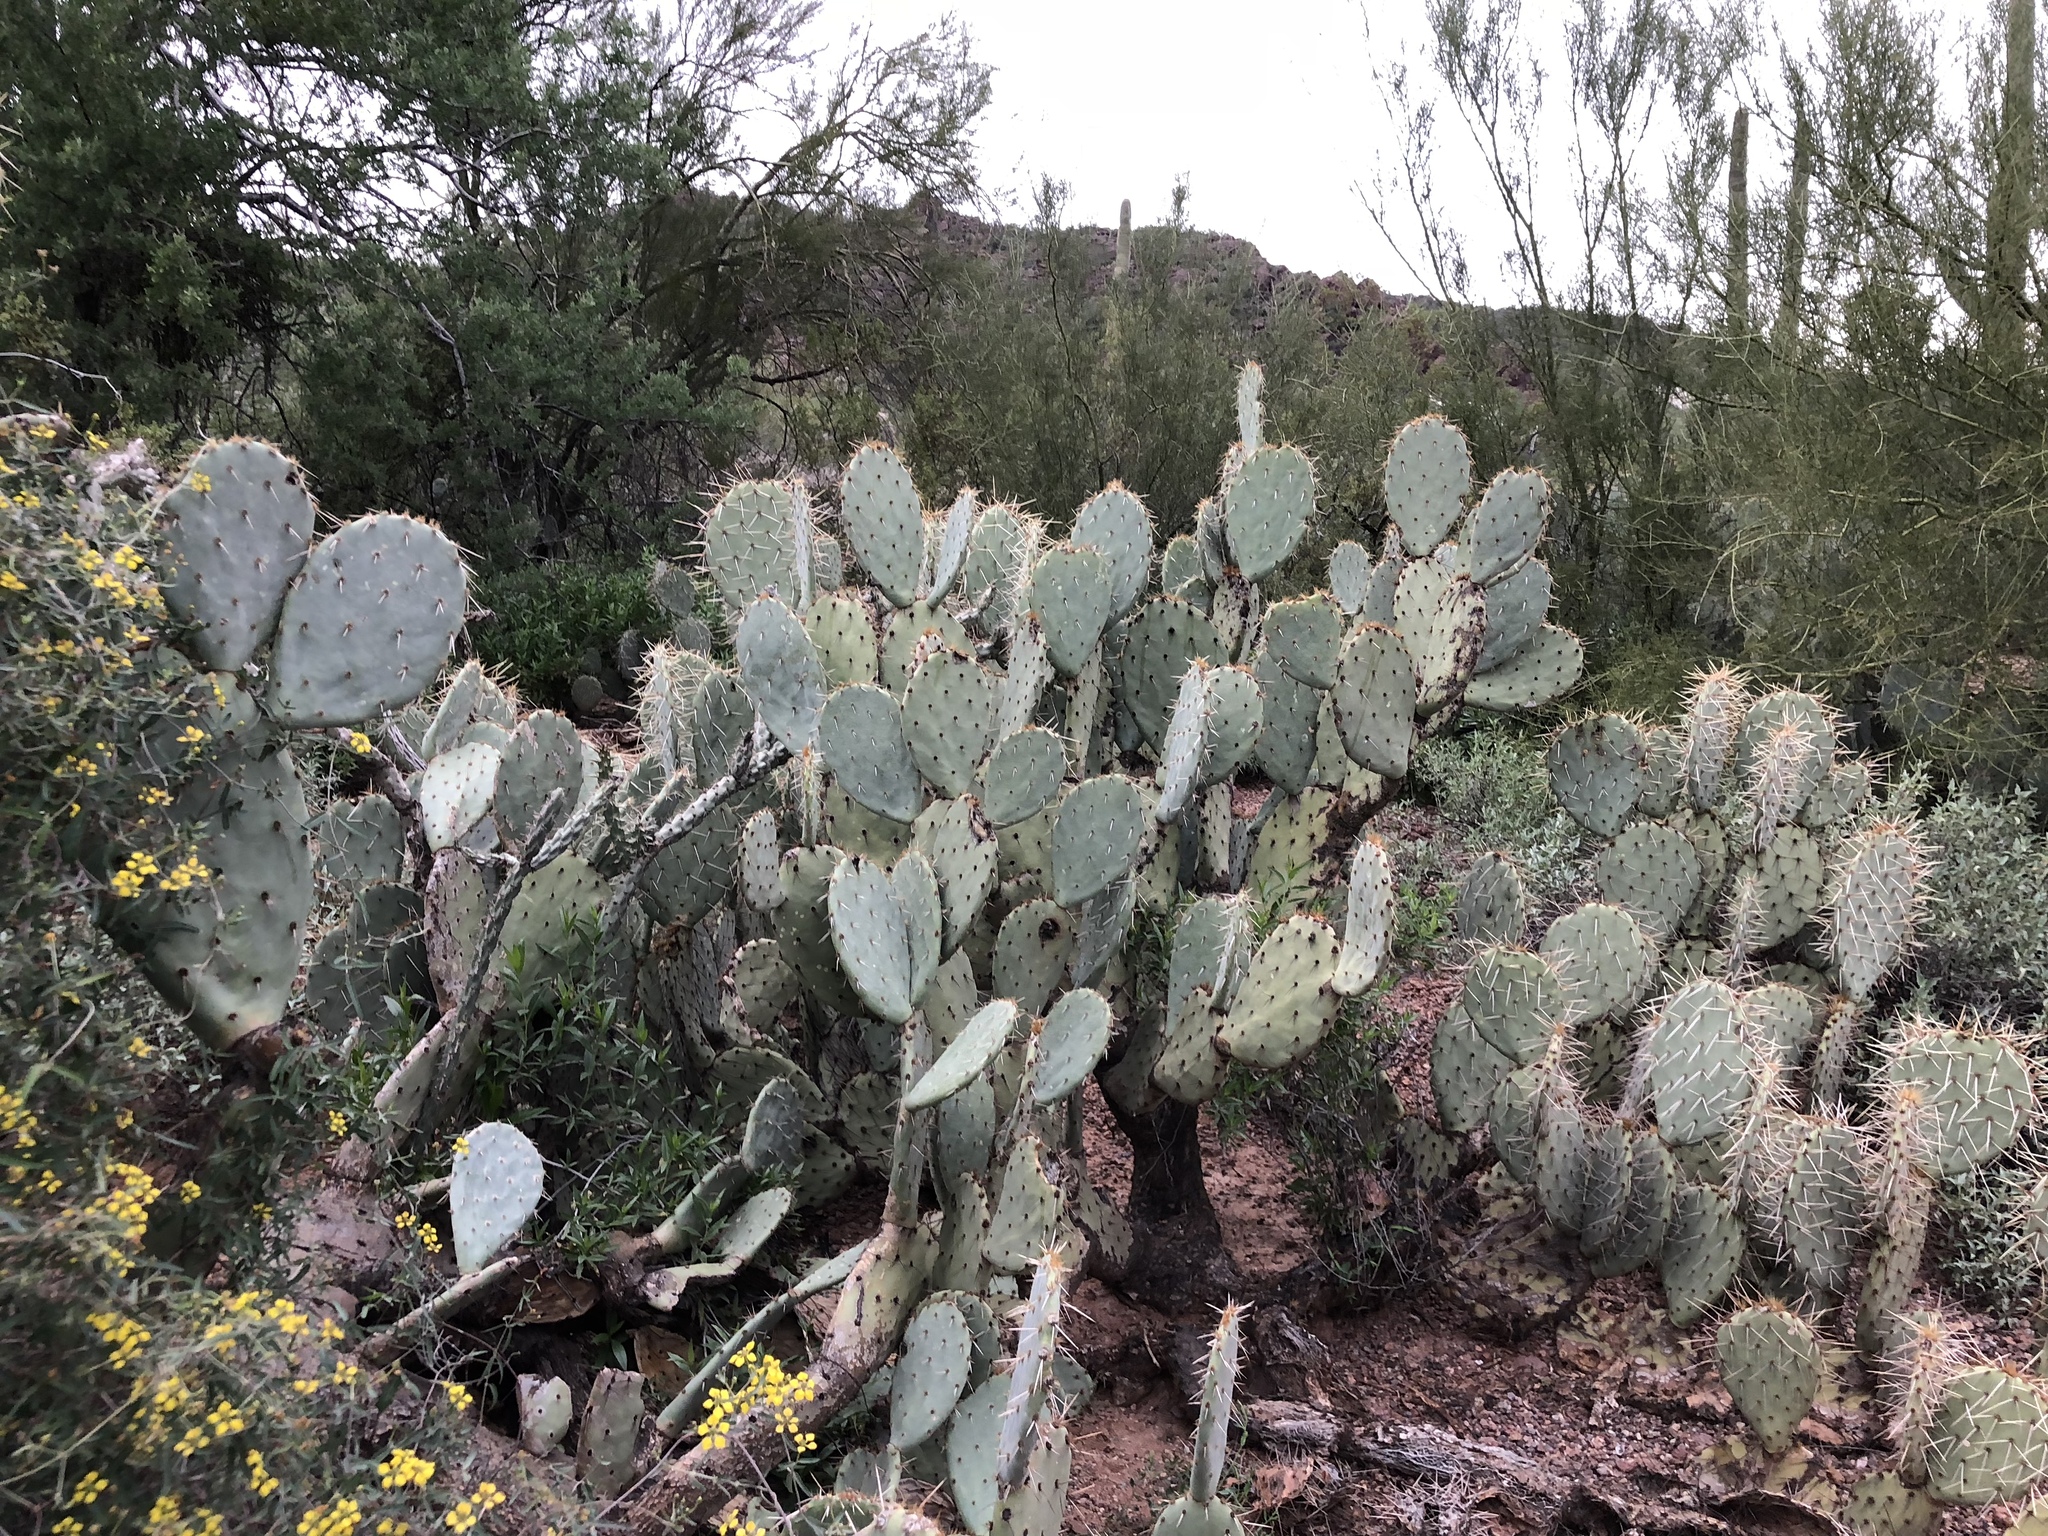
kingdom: Plantae
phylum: Tracheophyta
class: Magnoliopsida
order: Caryophyllales
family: Cactaceae
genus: Opuntia
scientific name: Opuntia engelmannii
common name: Cactus-apple
